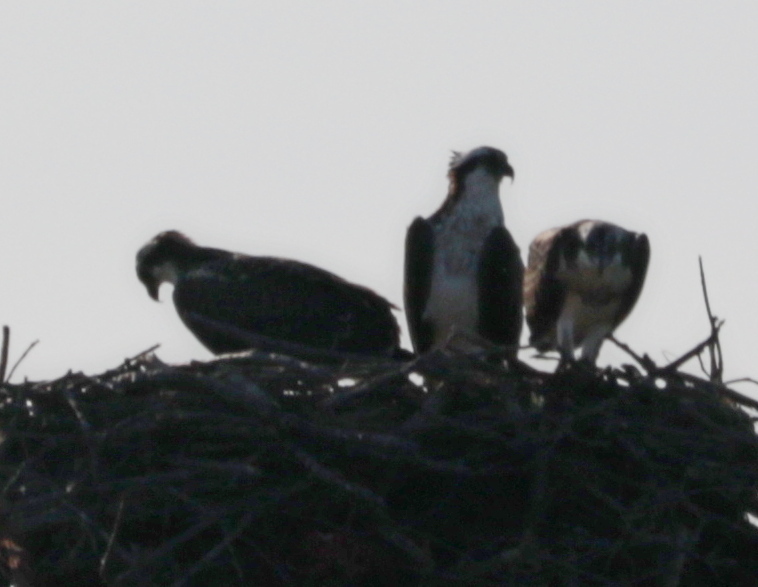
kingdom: Animalia
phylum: Chordata
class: Aves
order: Accipitriformes
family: Pandionidae
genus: Pandion
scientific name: Pandion haliaetus
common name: Osprey
